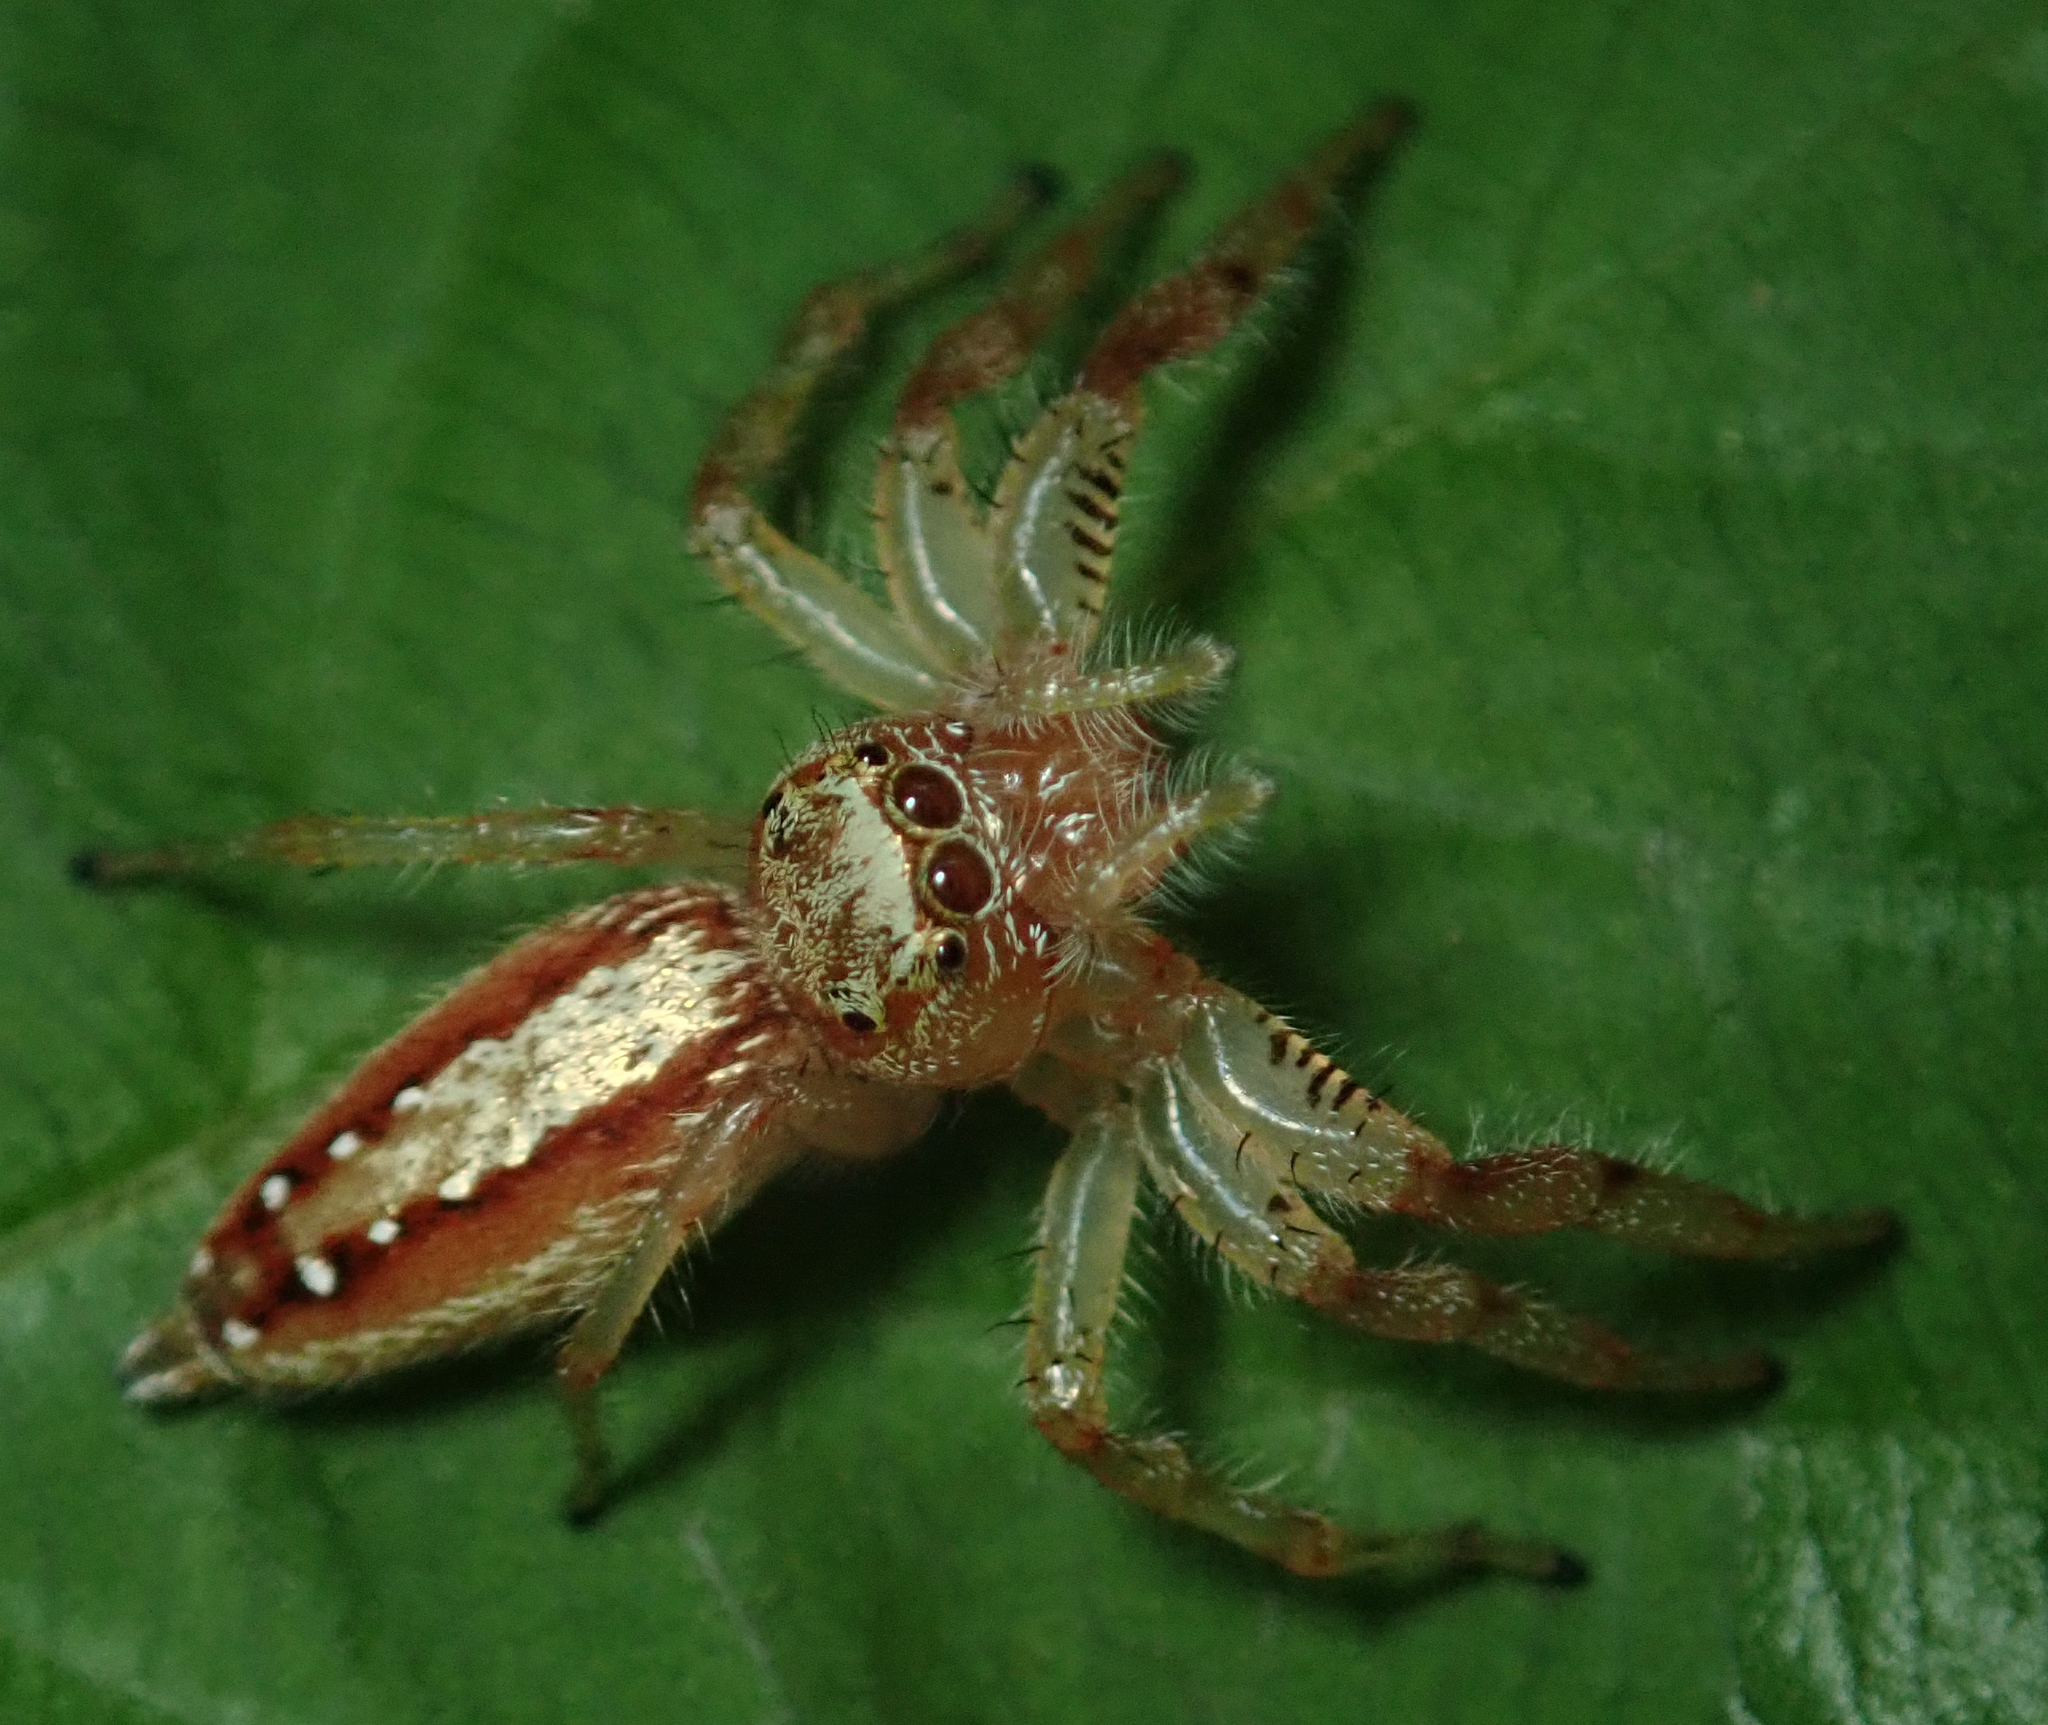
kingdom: Animalia
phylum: Arthropoda
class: Arachnida
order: Araneae
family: Salticidae
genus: Thyene
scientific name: Thyene ogdeni
